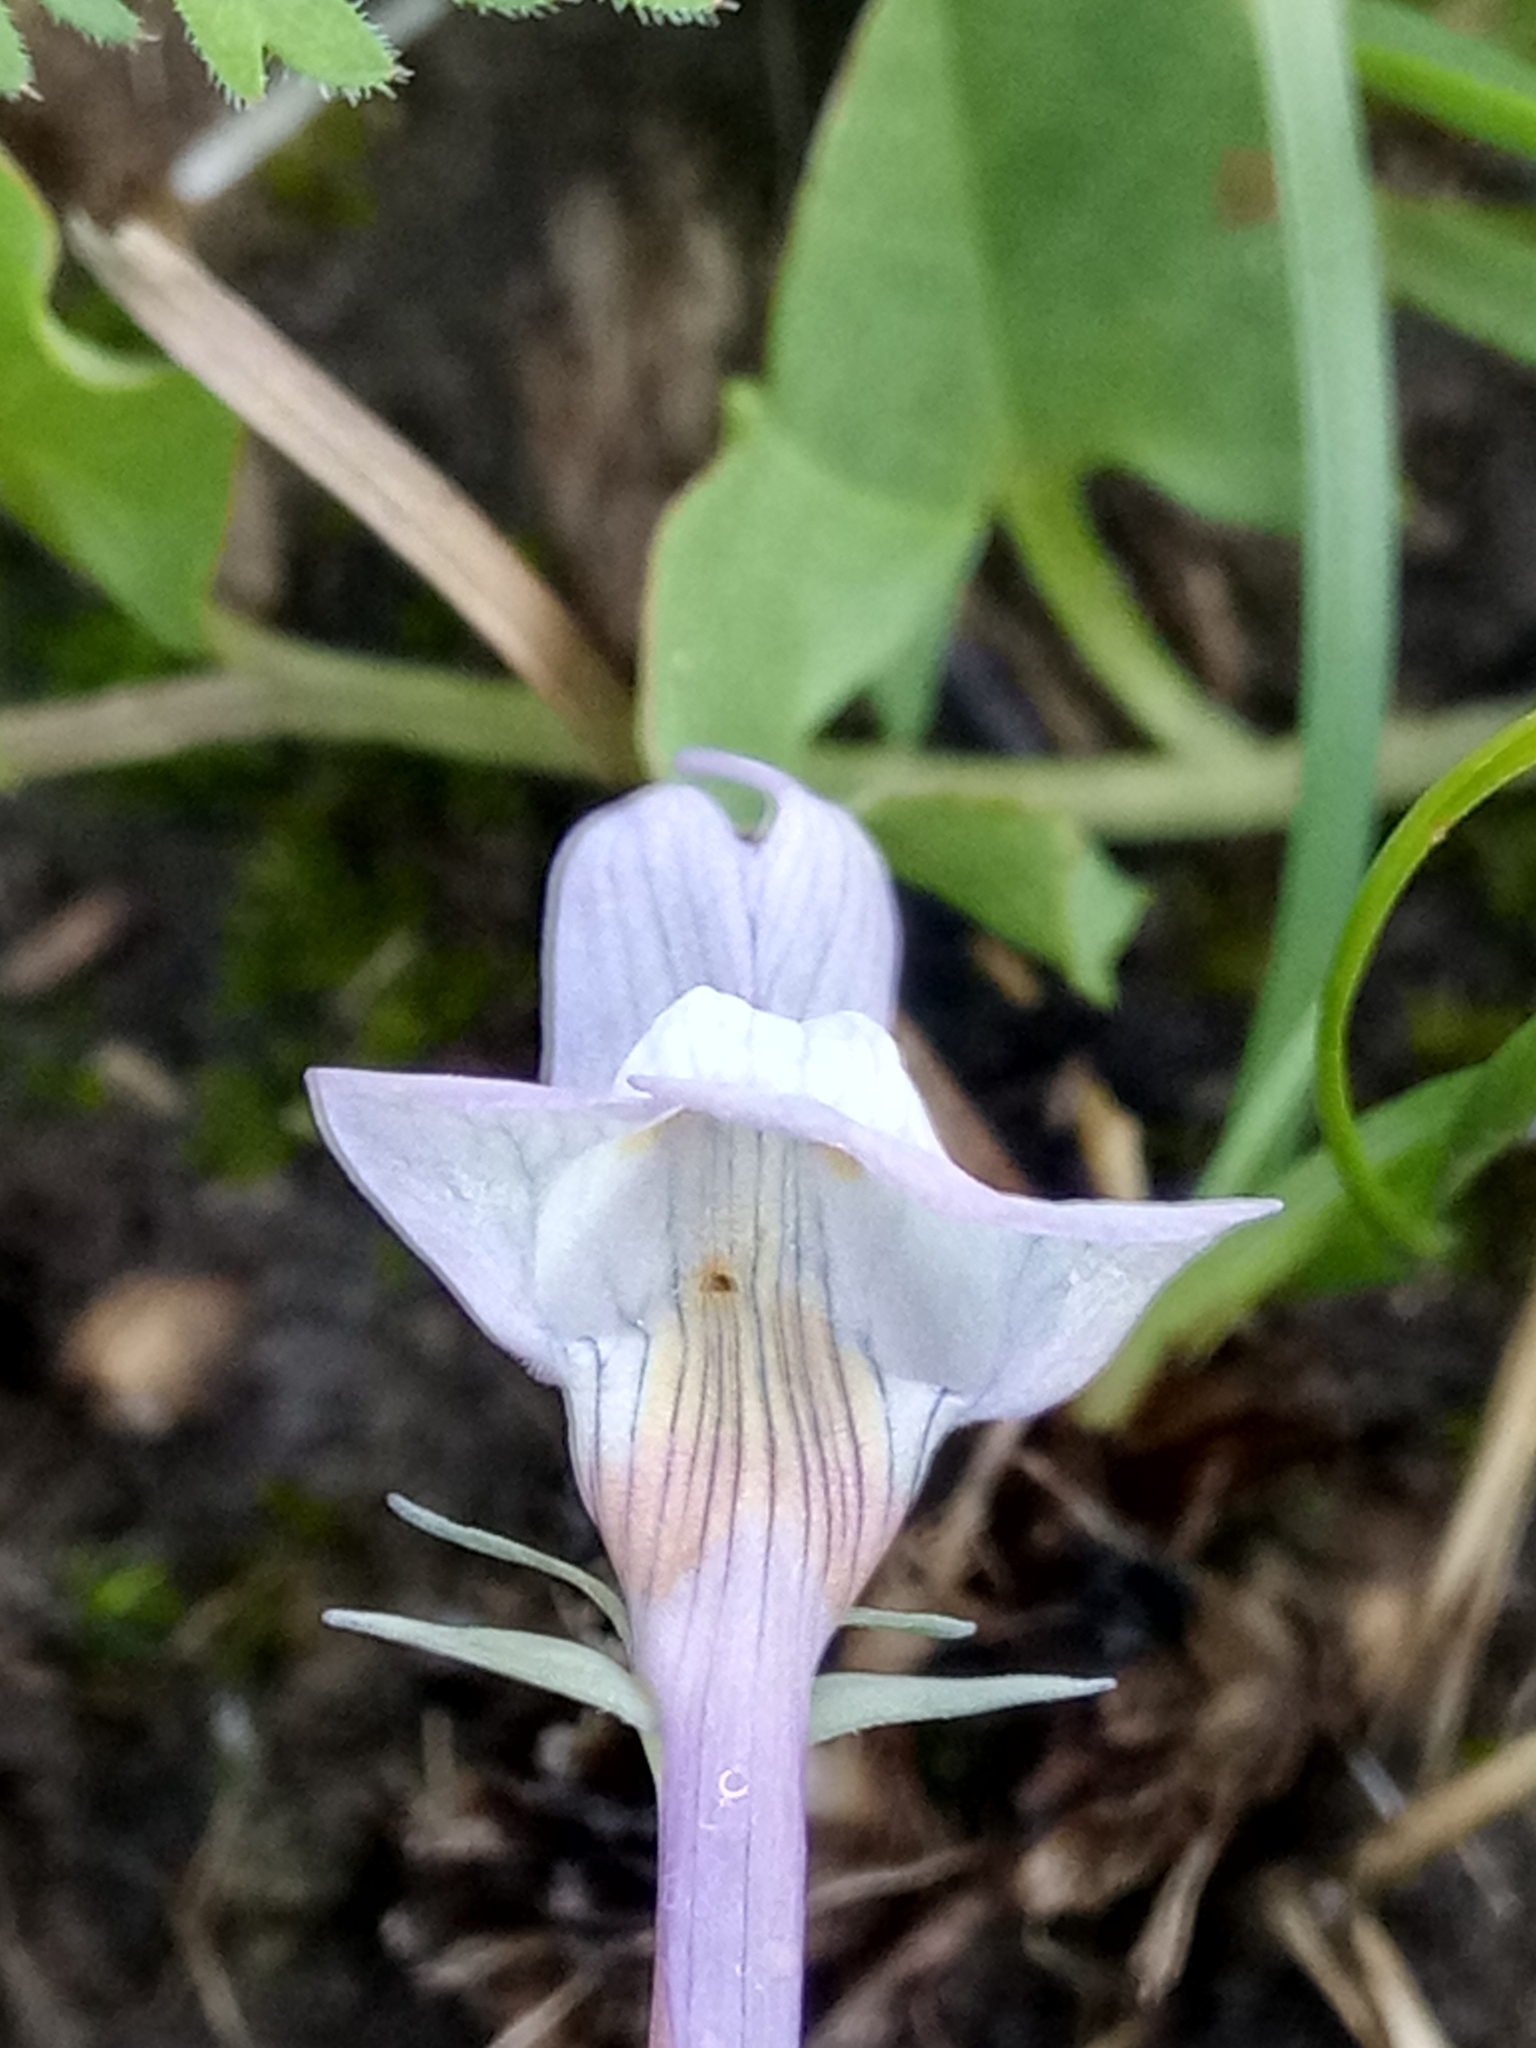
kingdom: Plantae
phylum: Tracheophyta
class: Magnoliopsida
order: Lamiales
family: Plantaginaceae
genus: Linaria
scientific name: Linaria reflexa
